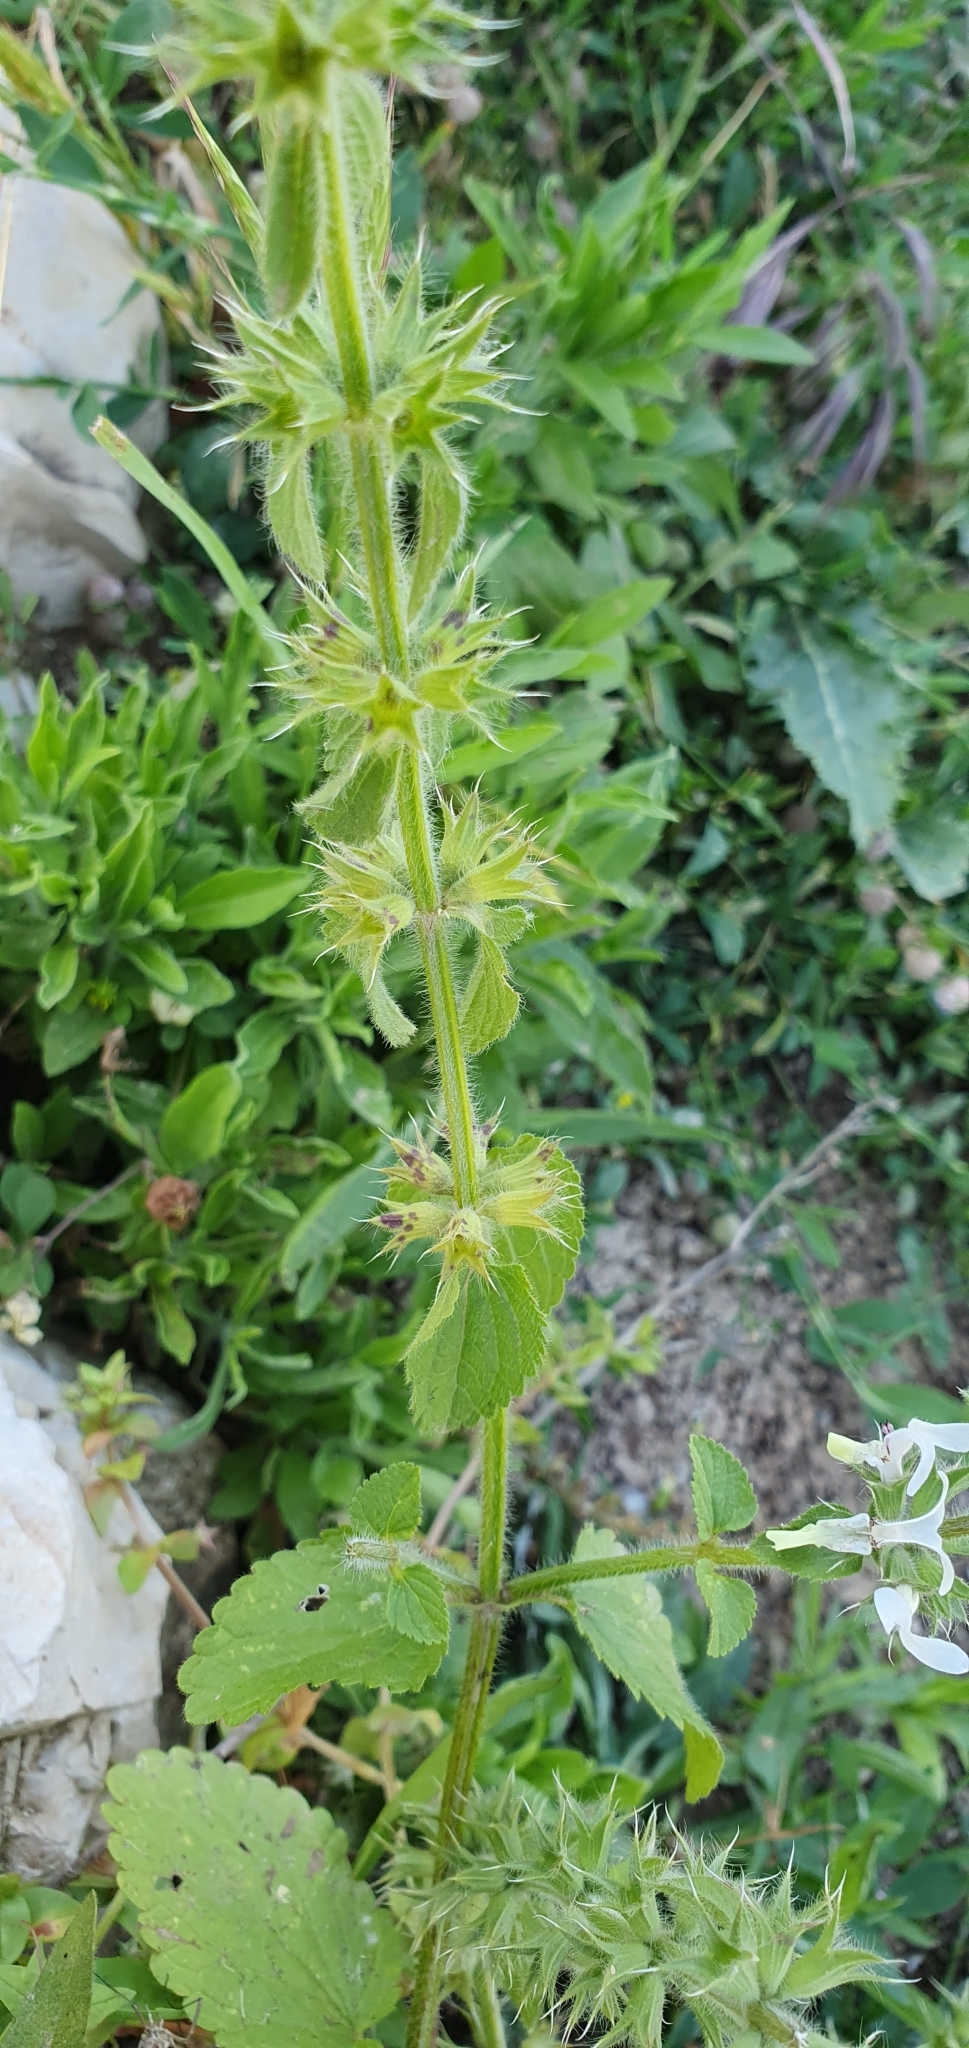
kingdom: Plantae
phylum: Tracheophyta
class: Magnoliopsida
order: Lamiales
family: Lamiaceae
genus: Stachys
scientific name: Stachys ocymastrum
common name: Italian hedgenettle
